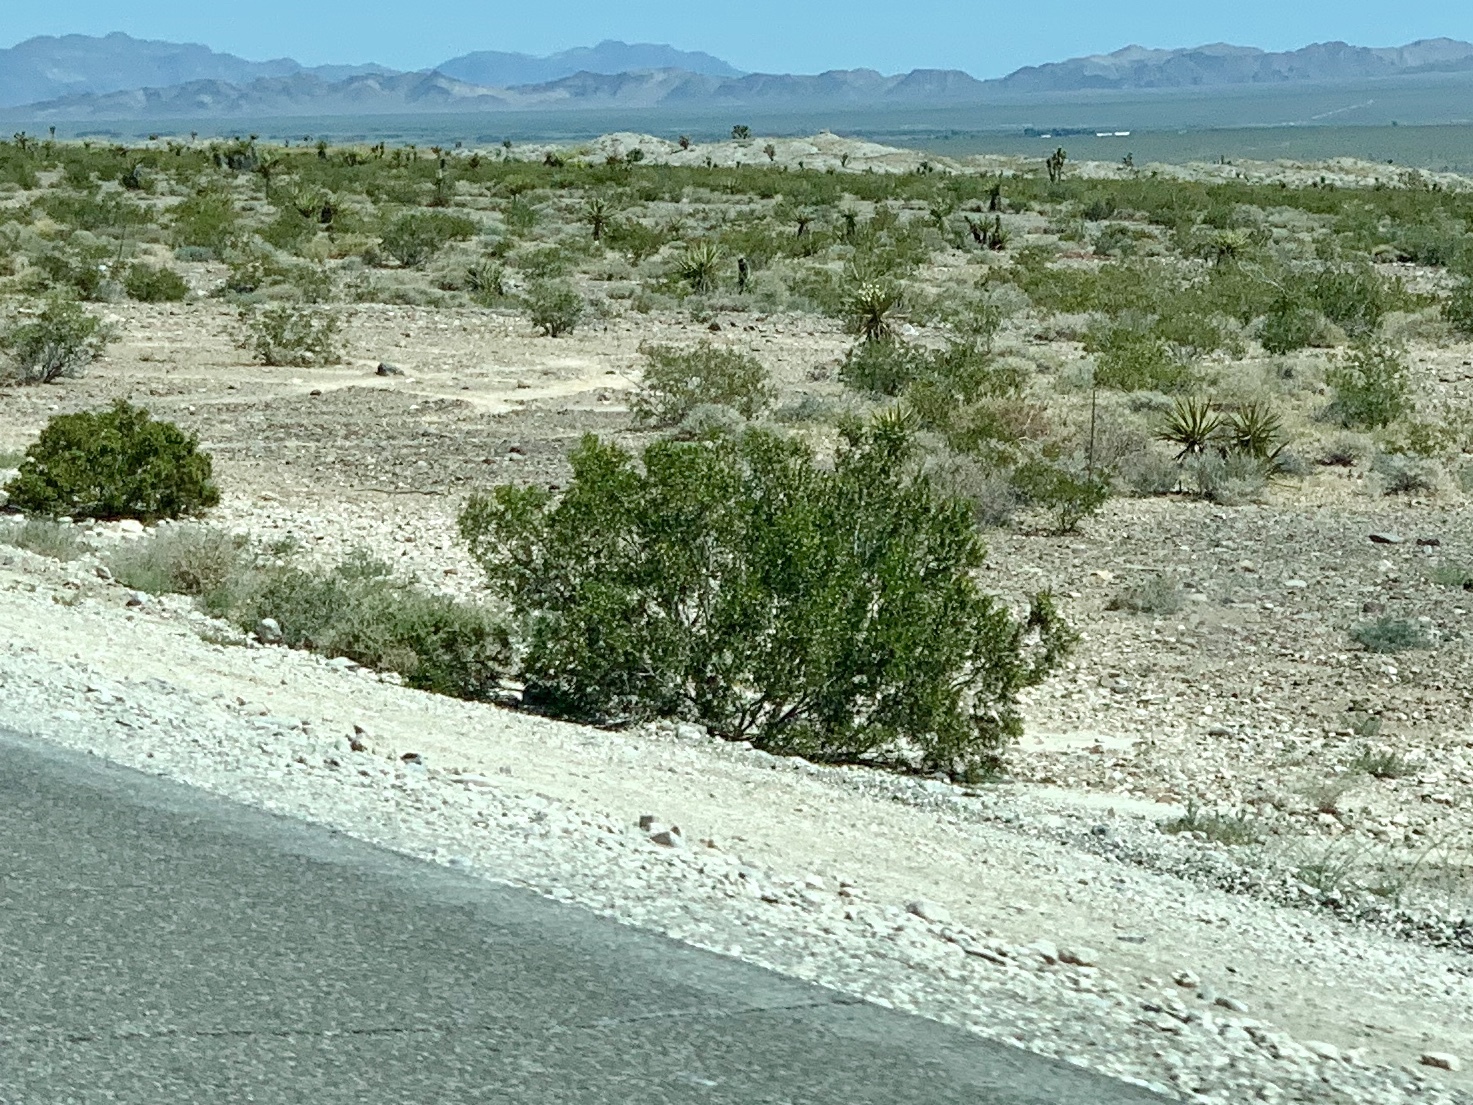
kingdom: Plantae
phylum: Tracheophyta
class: Magnoliopsida
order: Zygophyllales
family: Zygophyllaceae
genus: Larrea
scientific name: Larrea tridentata
